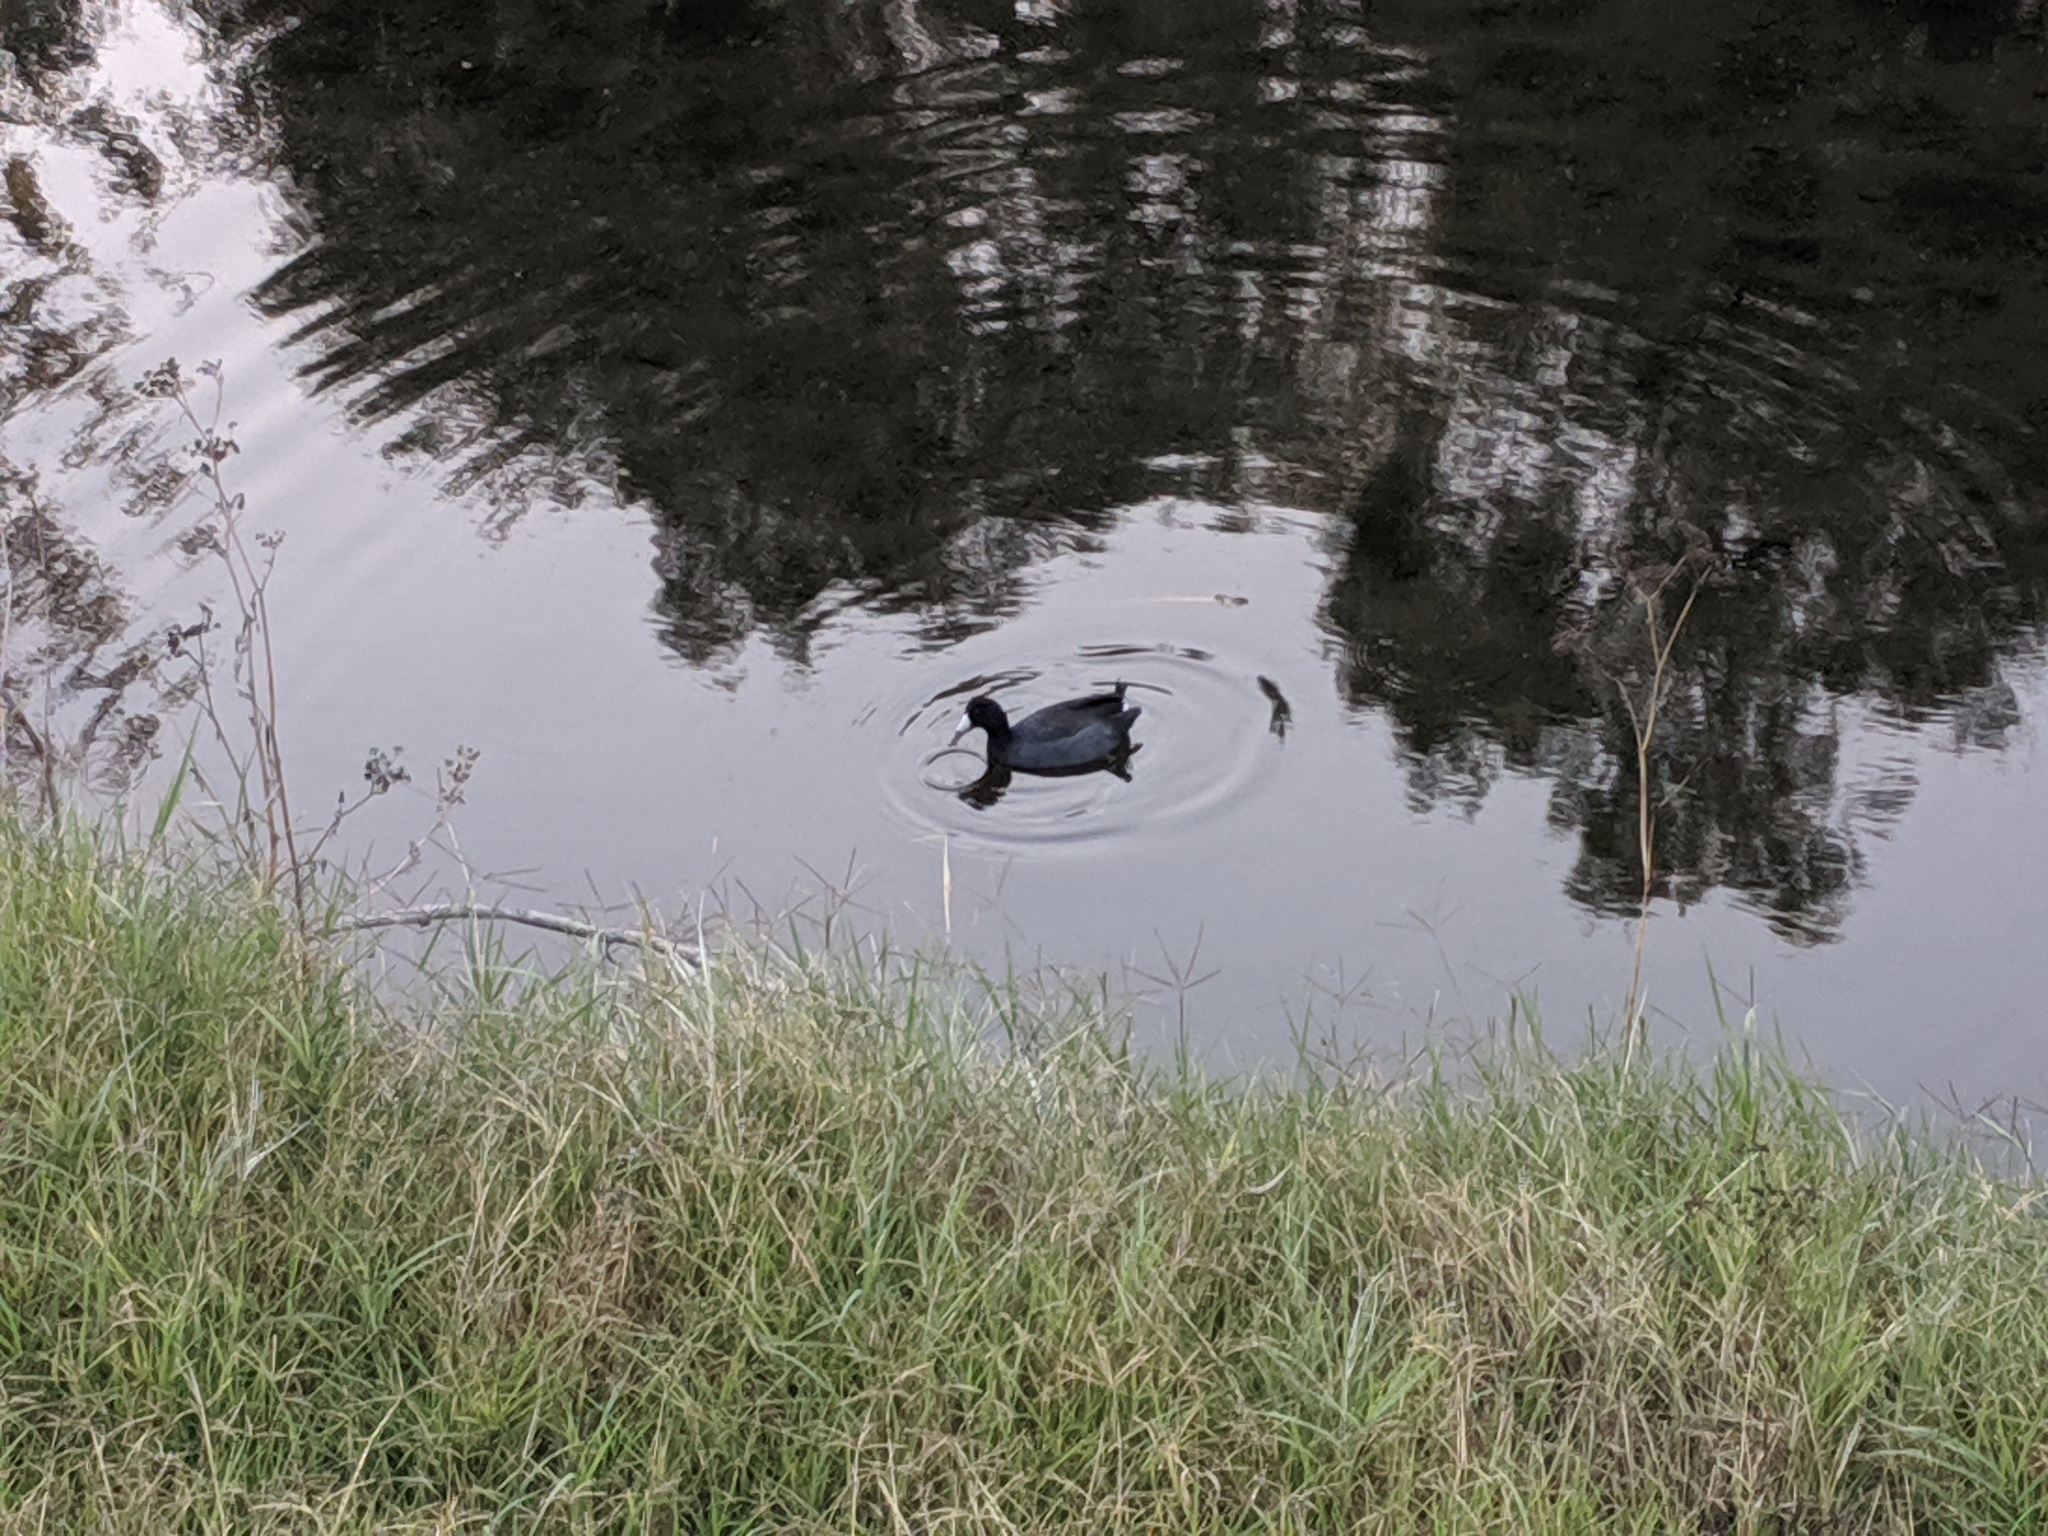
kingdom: Animalia
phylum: Chordata
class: Aves
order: Gruiformes
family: Rallidae
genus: Fulica
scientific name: Fulica americana
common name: American coot
